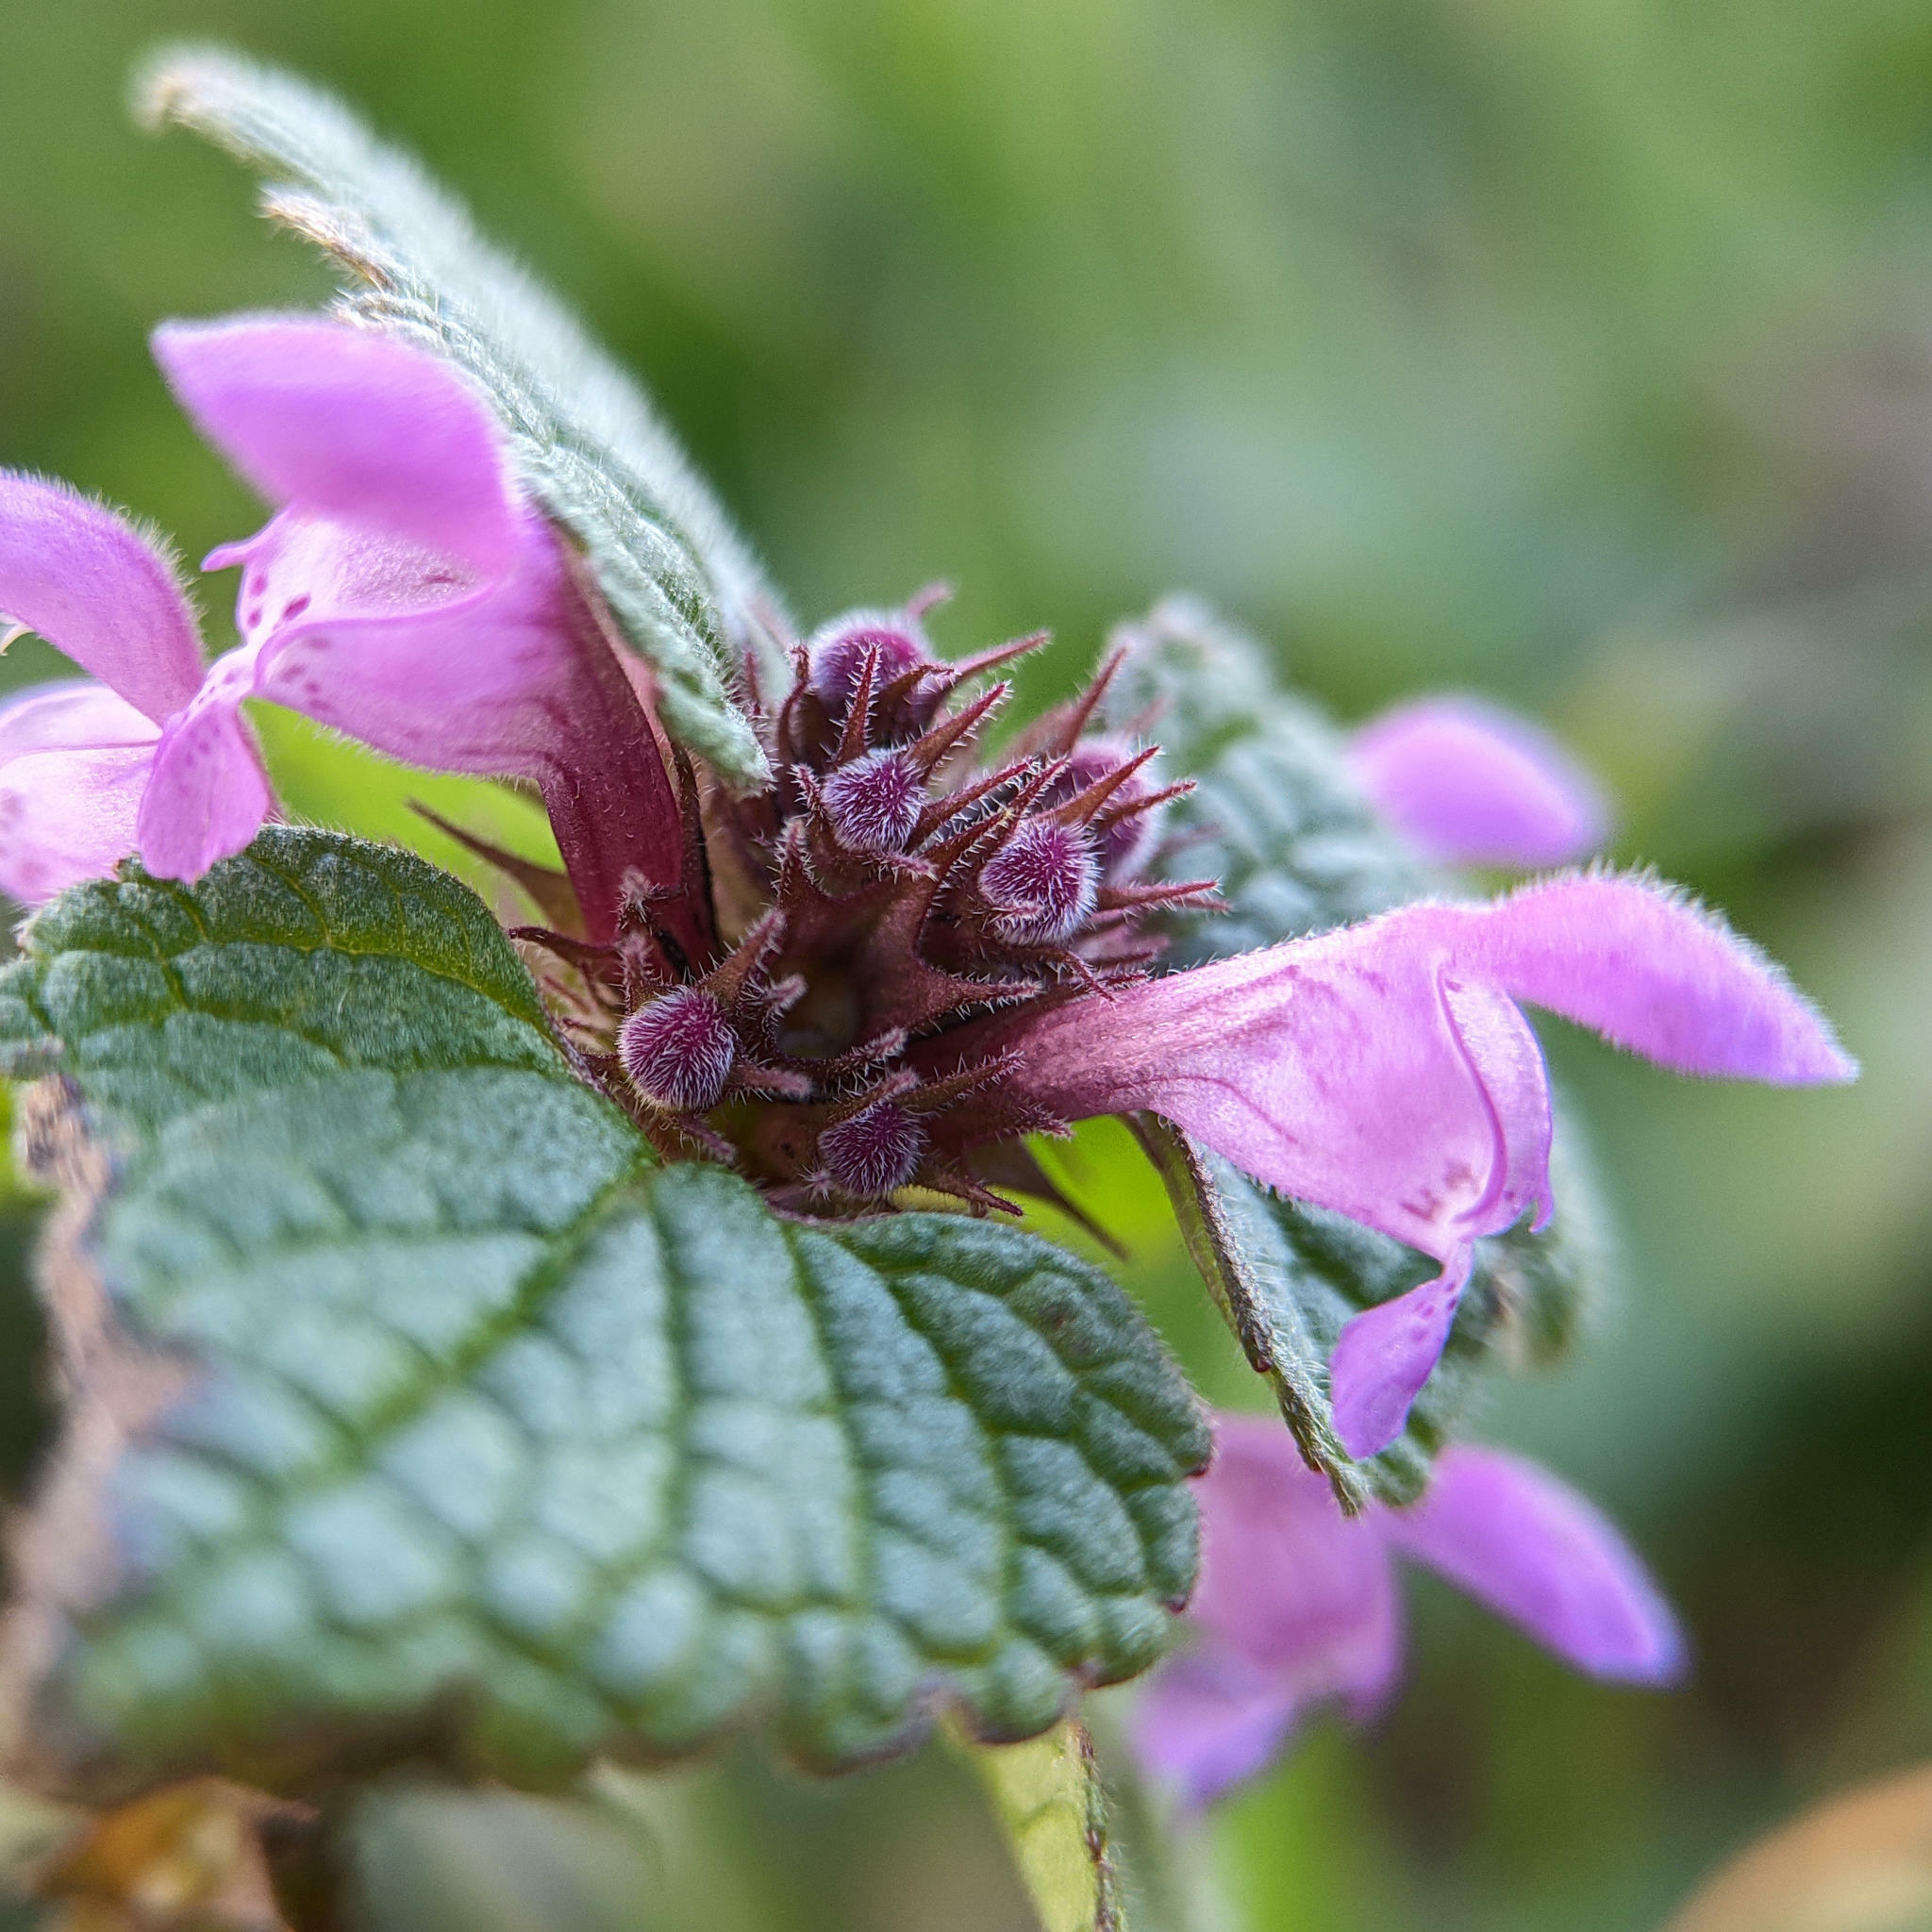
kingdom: Plantae
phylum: Tracheophyta
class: Magnoliopsida
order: Lamiales
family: Lamiaceae
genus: Lamium
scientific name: Lamium purpureum
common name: Red dead-nettle
